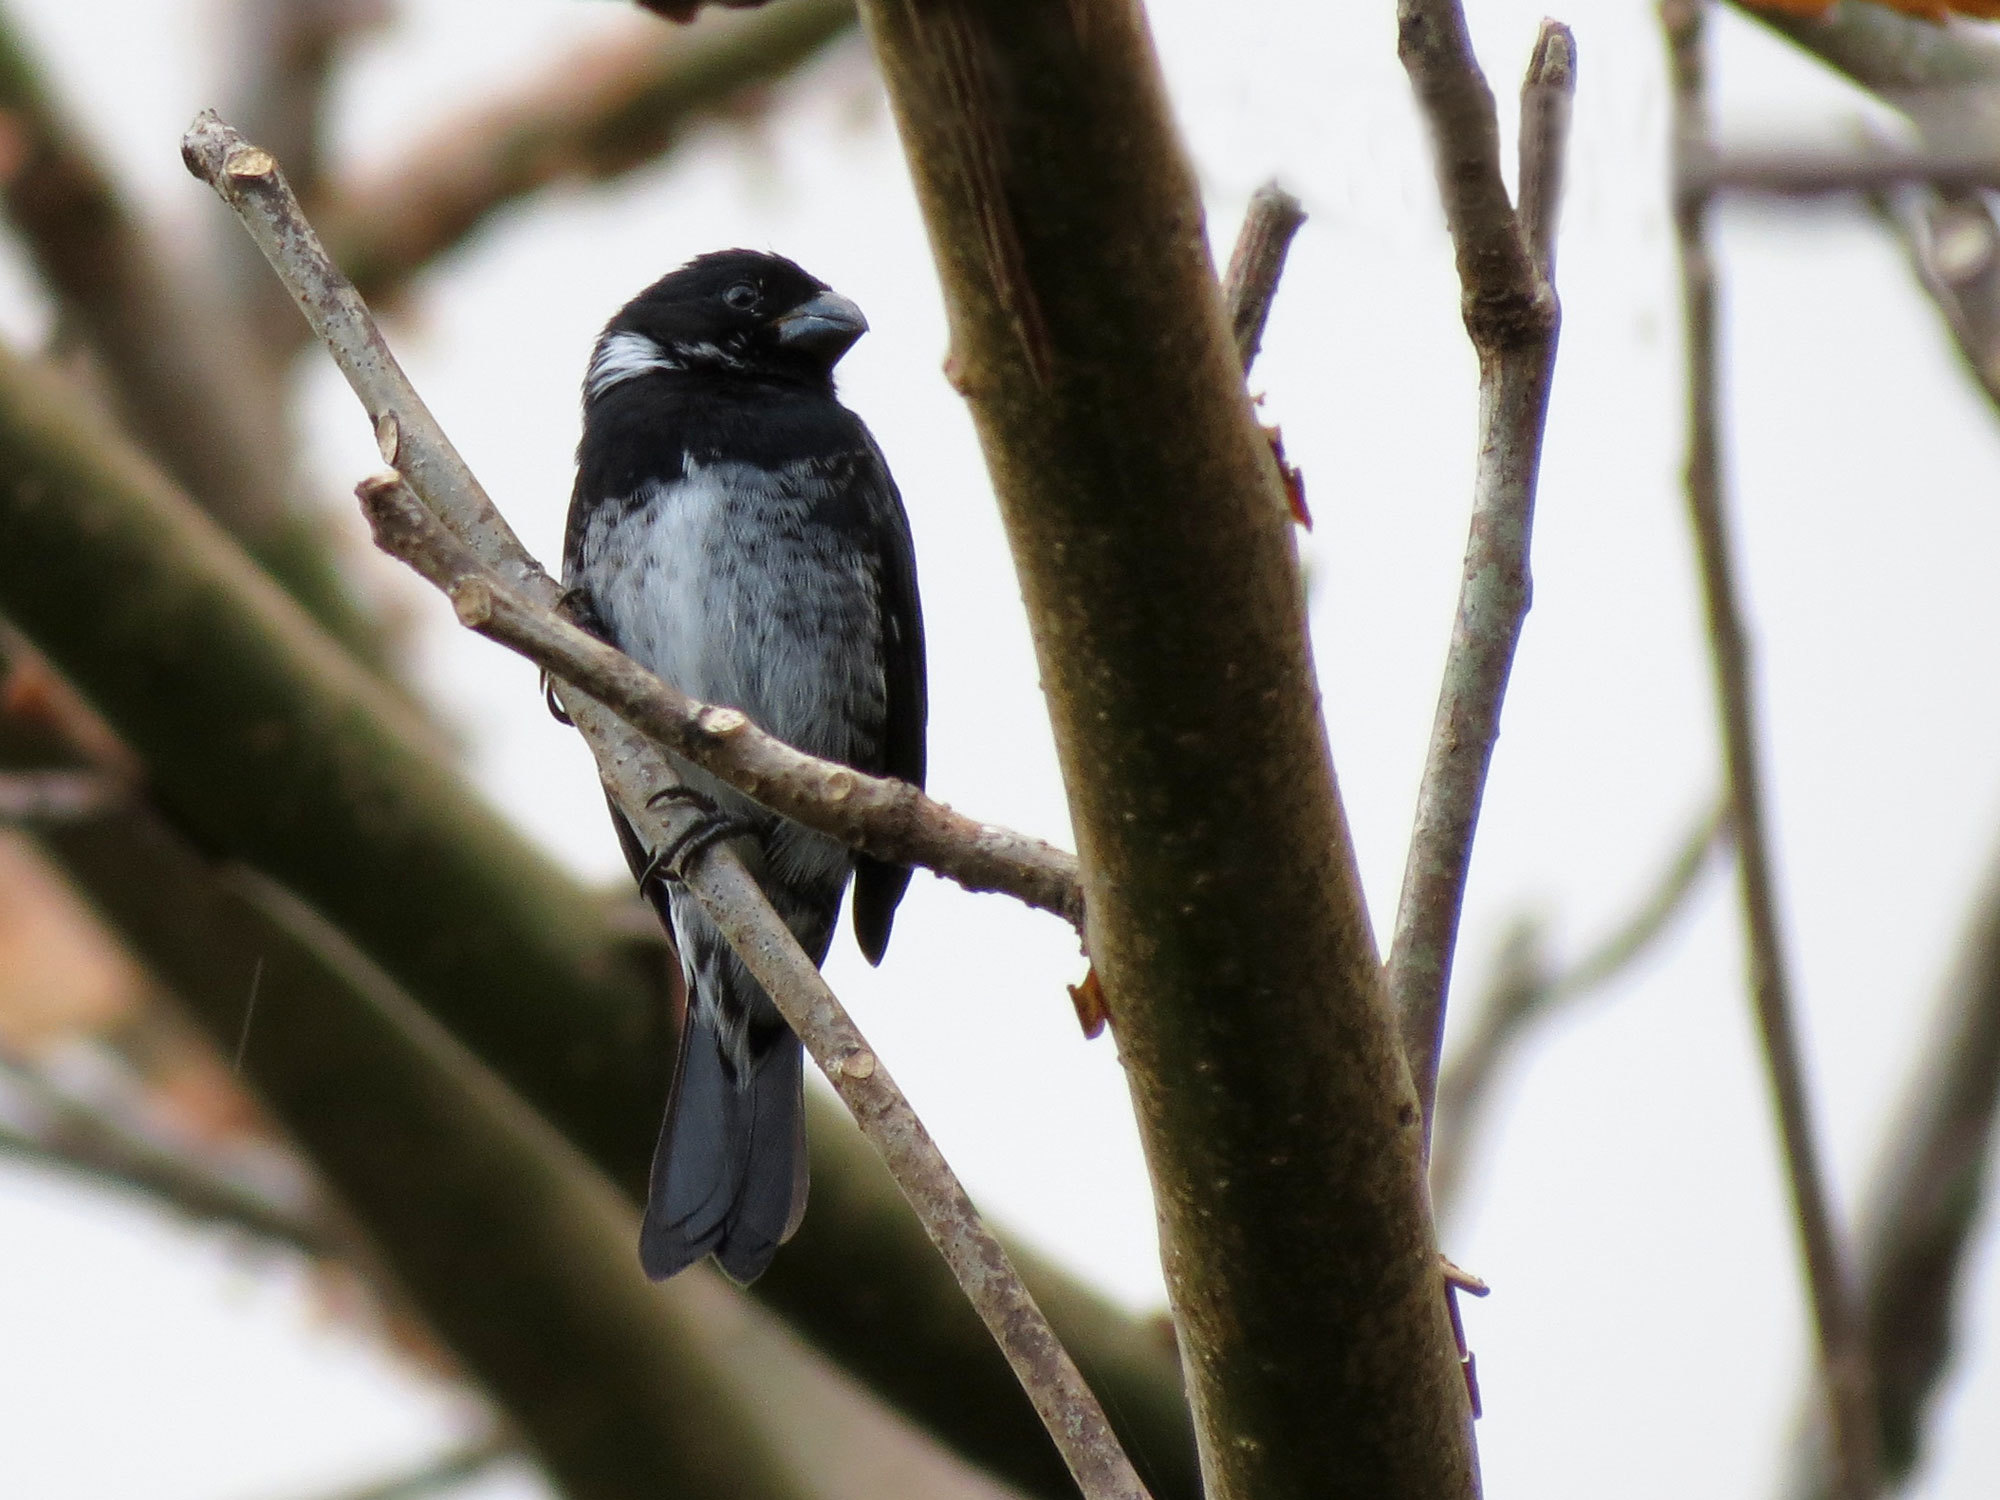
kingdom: Animalia
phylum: Chordata
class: Aves
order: Passeriformes
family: Thraupidae
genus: Sporophila
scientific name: Sporophila corvina
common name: Variable seedeater
